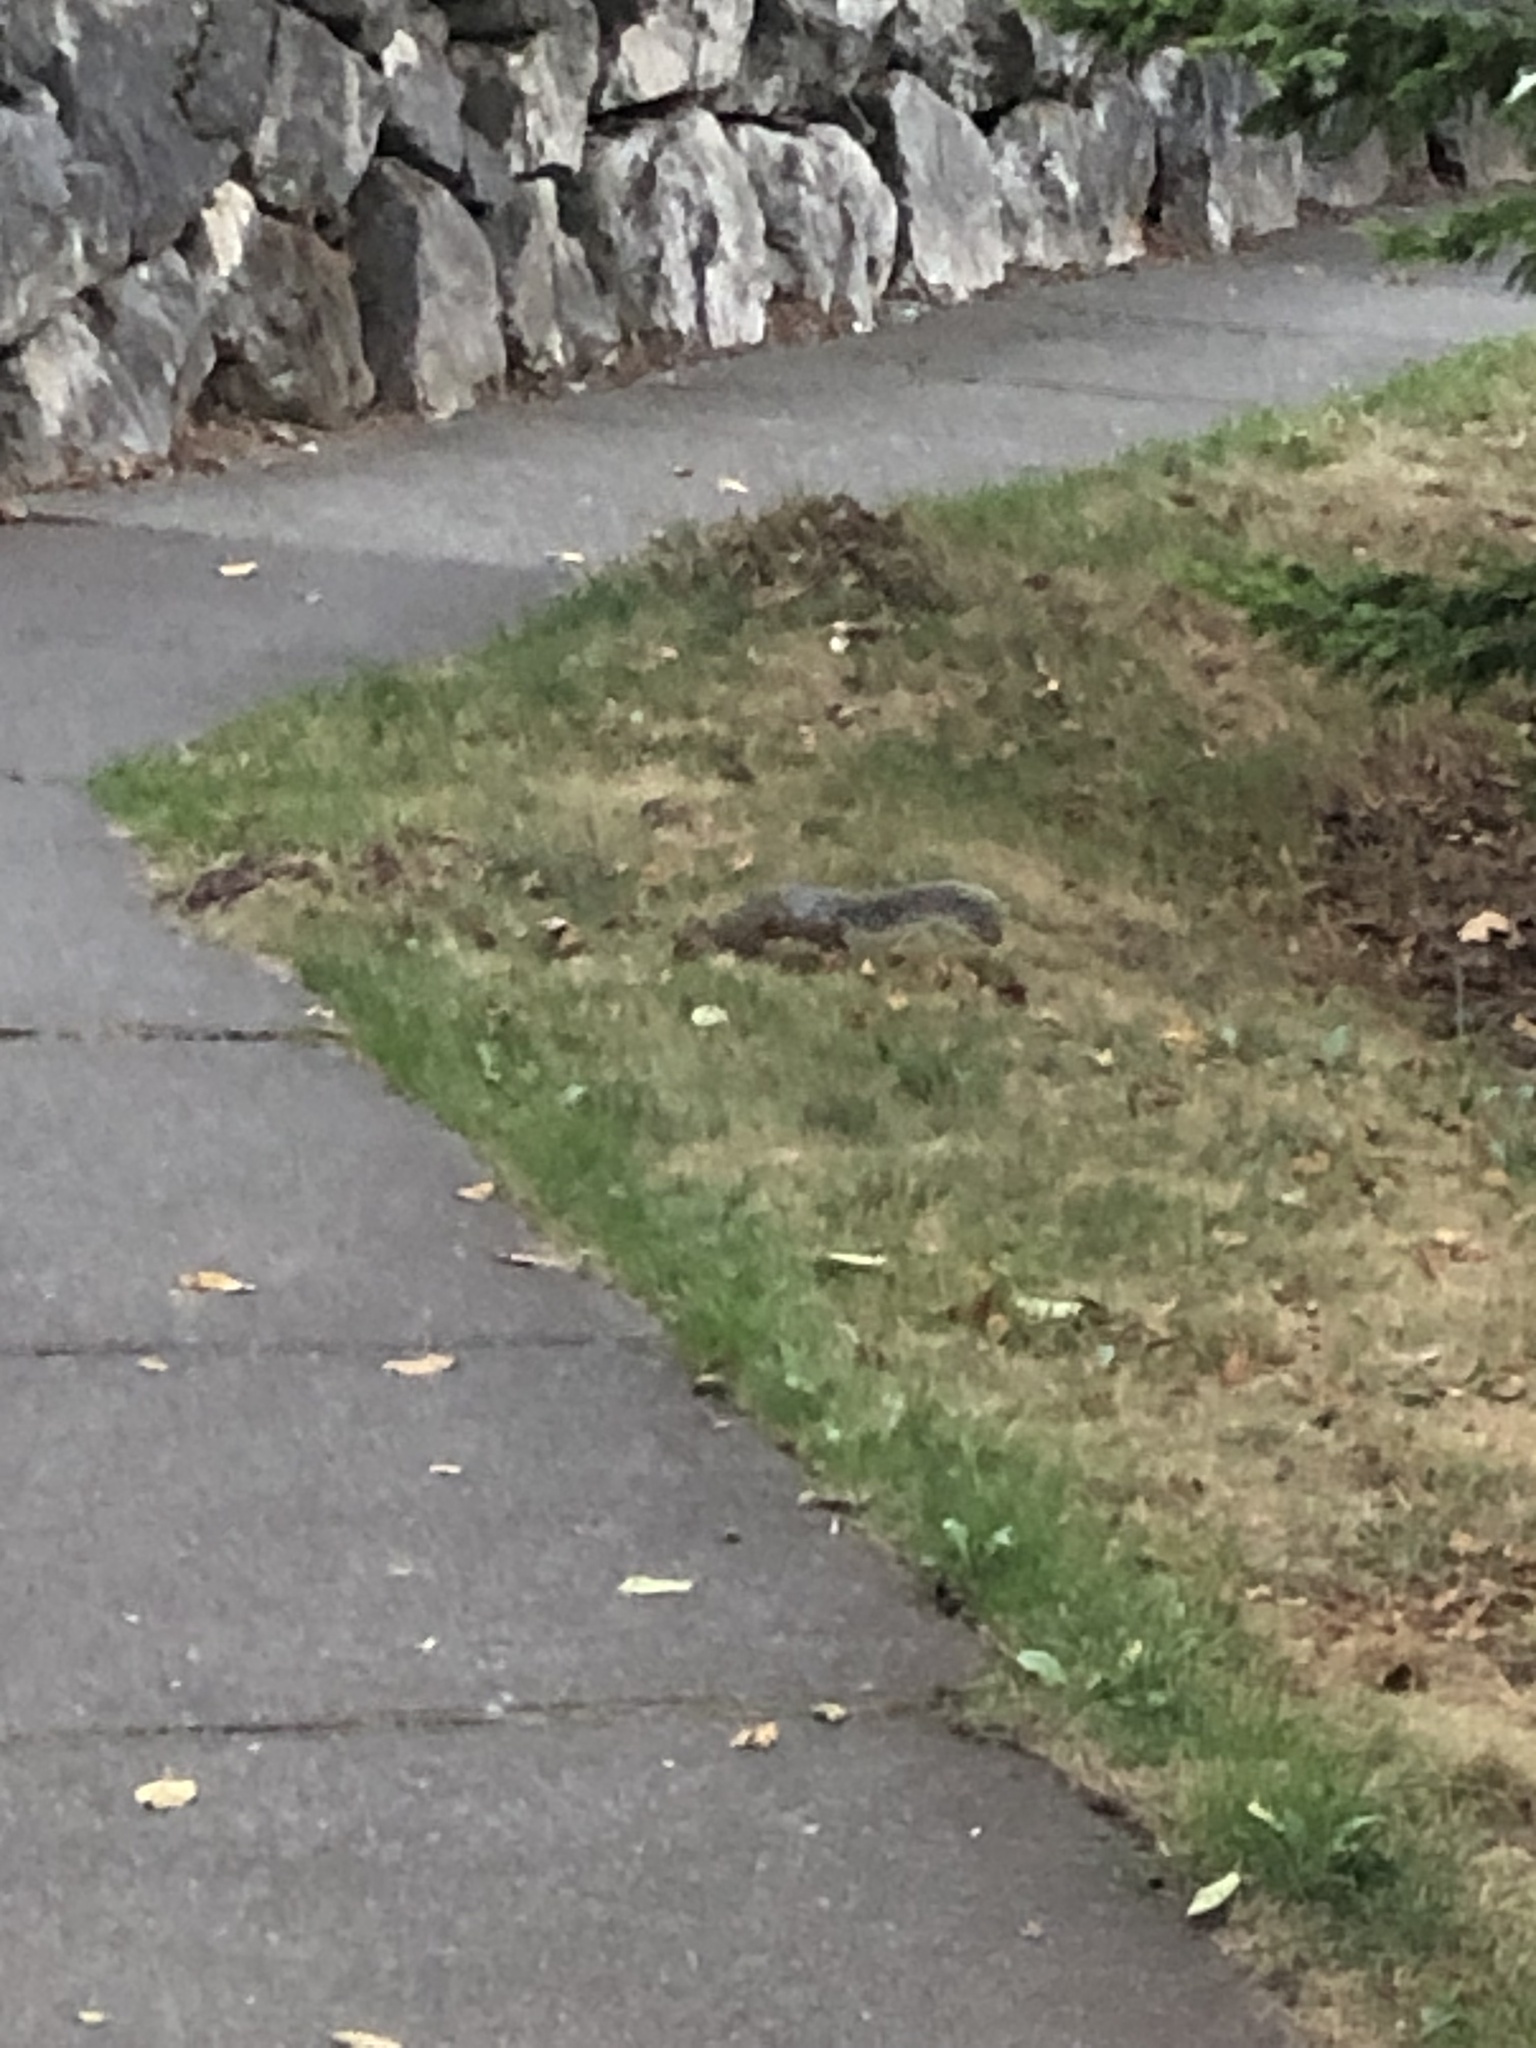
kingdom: Animalia
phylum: Chordata
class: Mammalia
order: Rodentia
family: Sciuridae
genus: Sciurus
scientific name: Sciurus carolinensis
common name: Eastern gray squirrel
